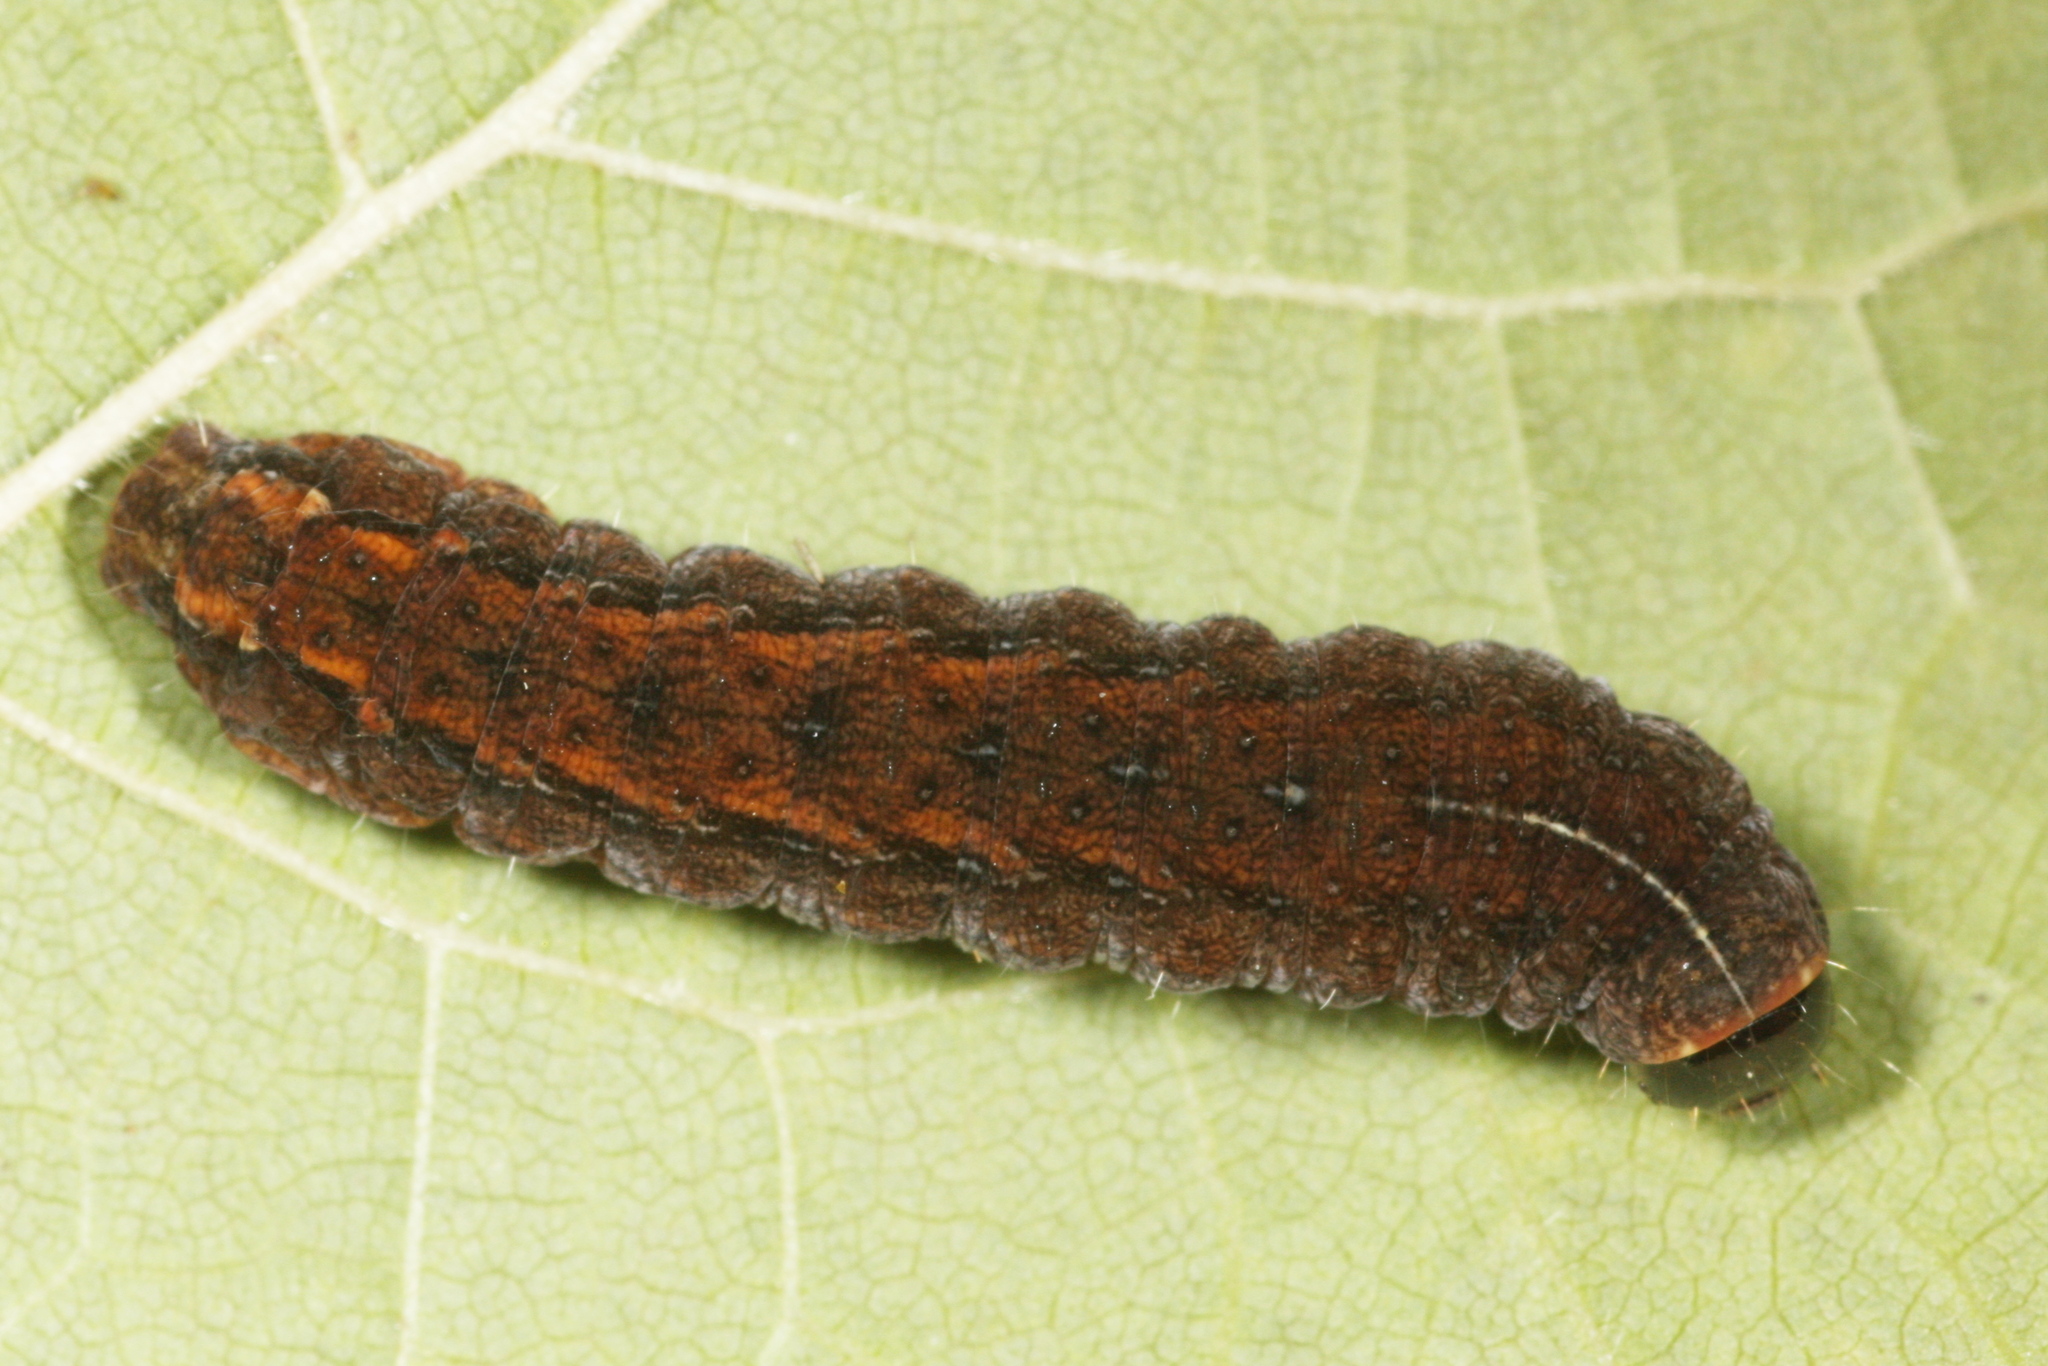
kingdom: Animalia
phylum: Arthropoda
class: Insecta
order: Lepidoptera
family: Noctuidae
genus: Charanyca
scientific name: Charanyca ferruginea
